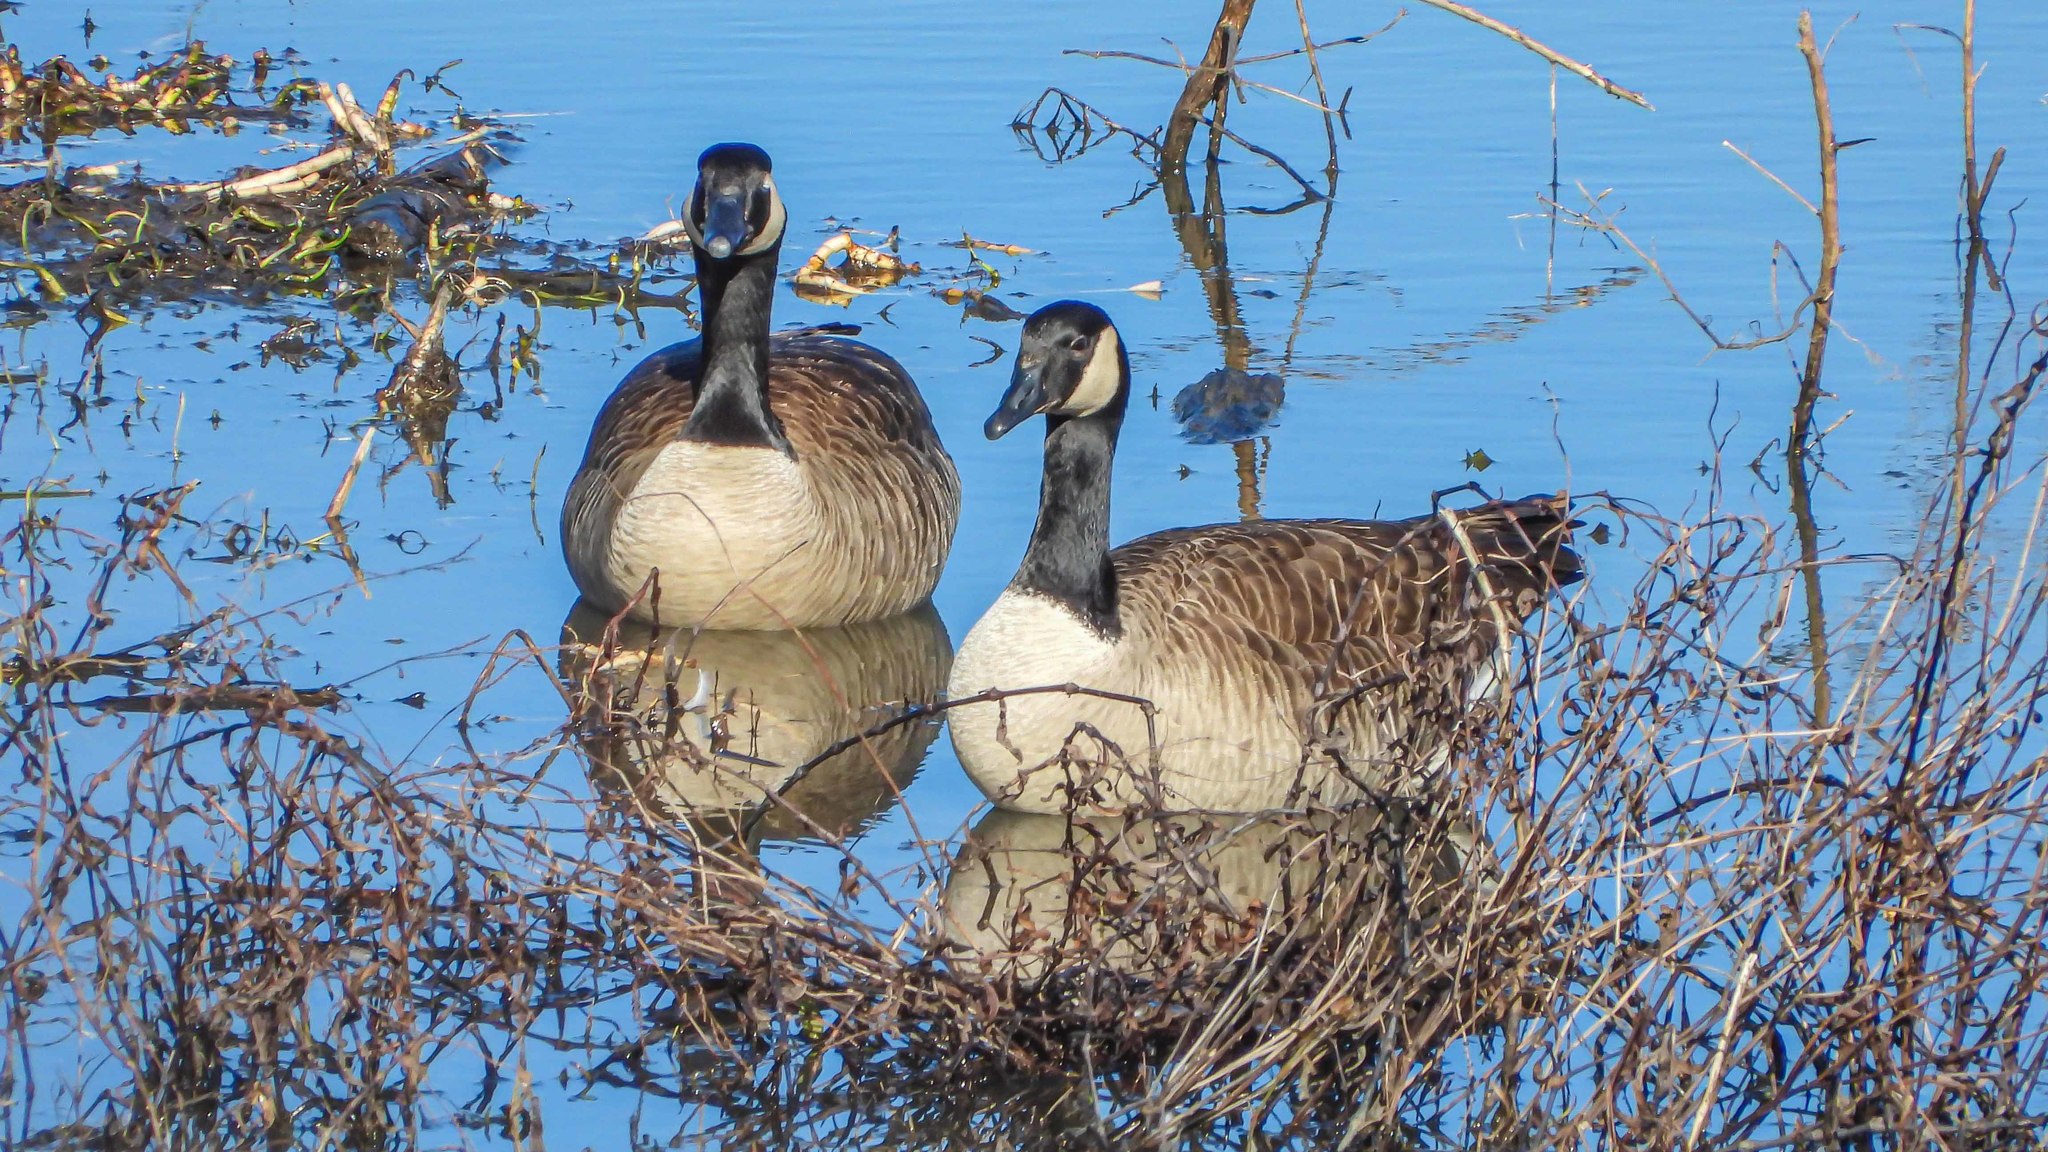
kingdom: Animalia
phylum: Chordata
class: Aves
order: Anseriformes
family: Anatidae
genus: Branta
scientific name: Branta canadensis
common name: Canada goose
